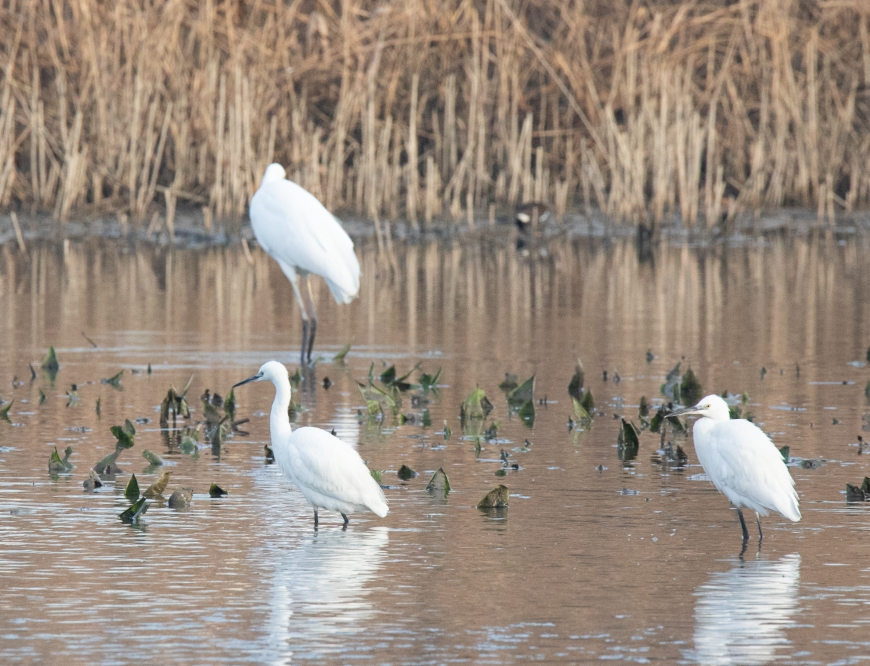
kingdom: Animalia
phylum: Chordata
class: Aves
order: Pelecaniformes
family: Ardeidae
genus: Egretta
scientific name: Egretta garzetta
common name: Little egret
